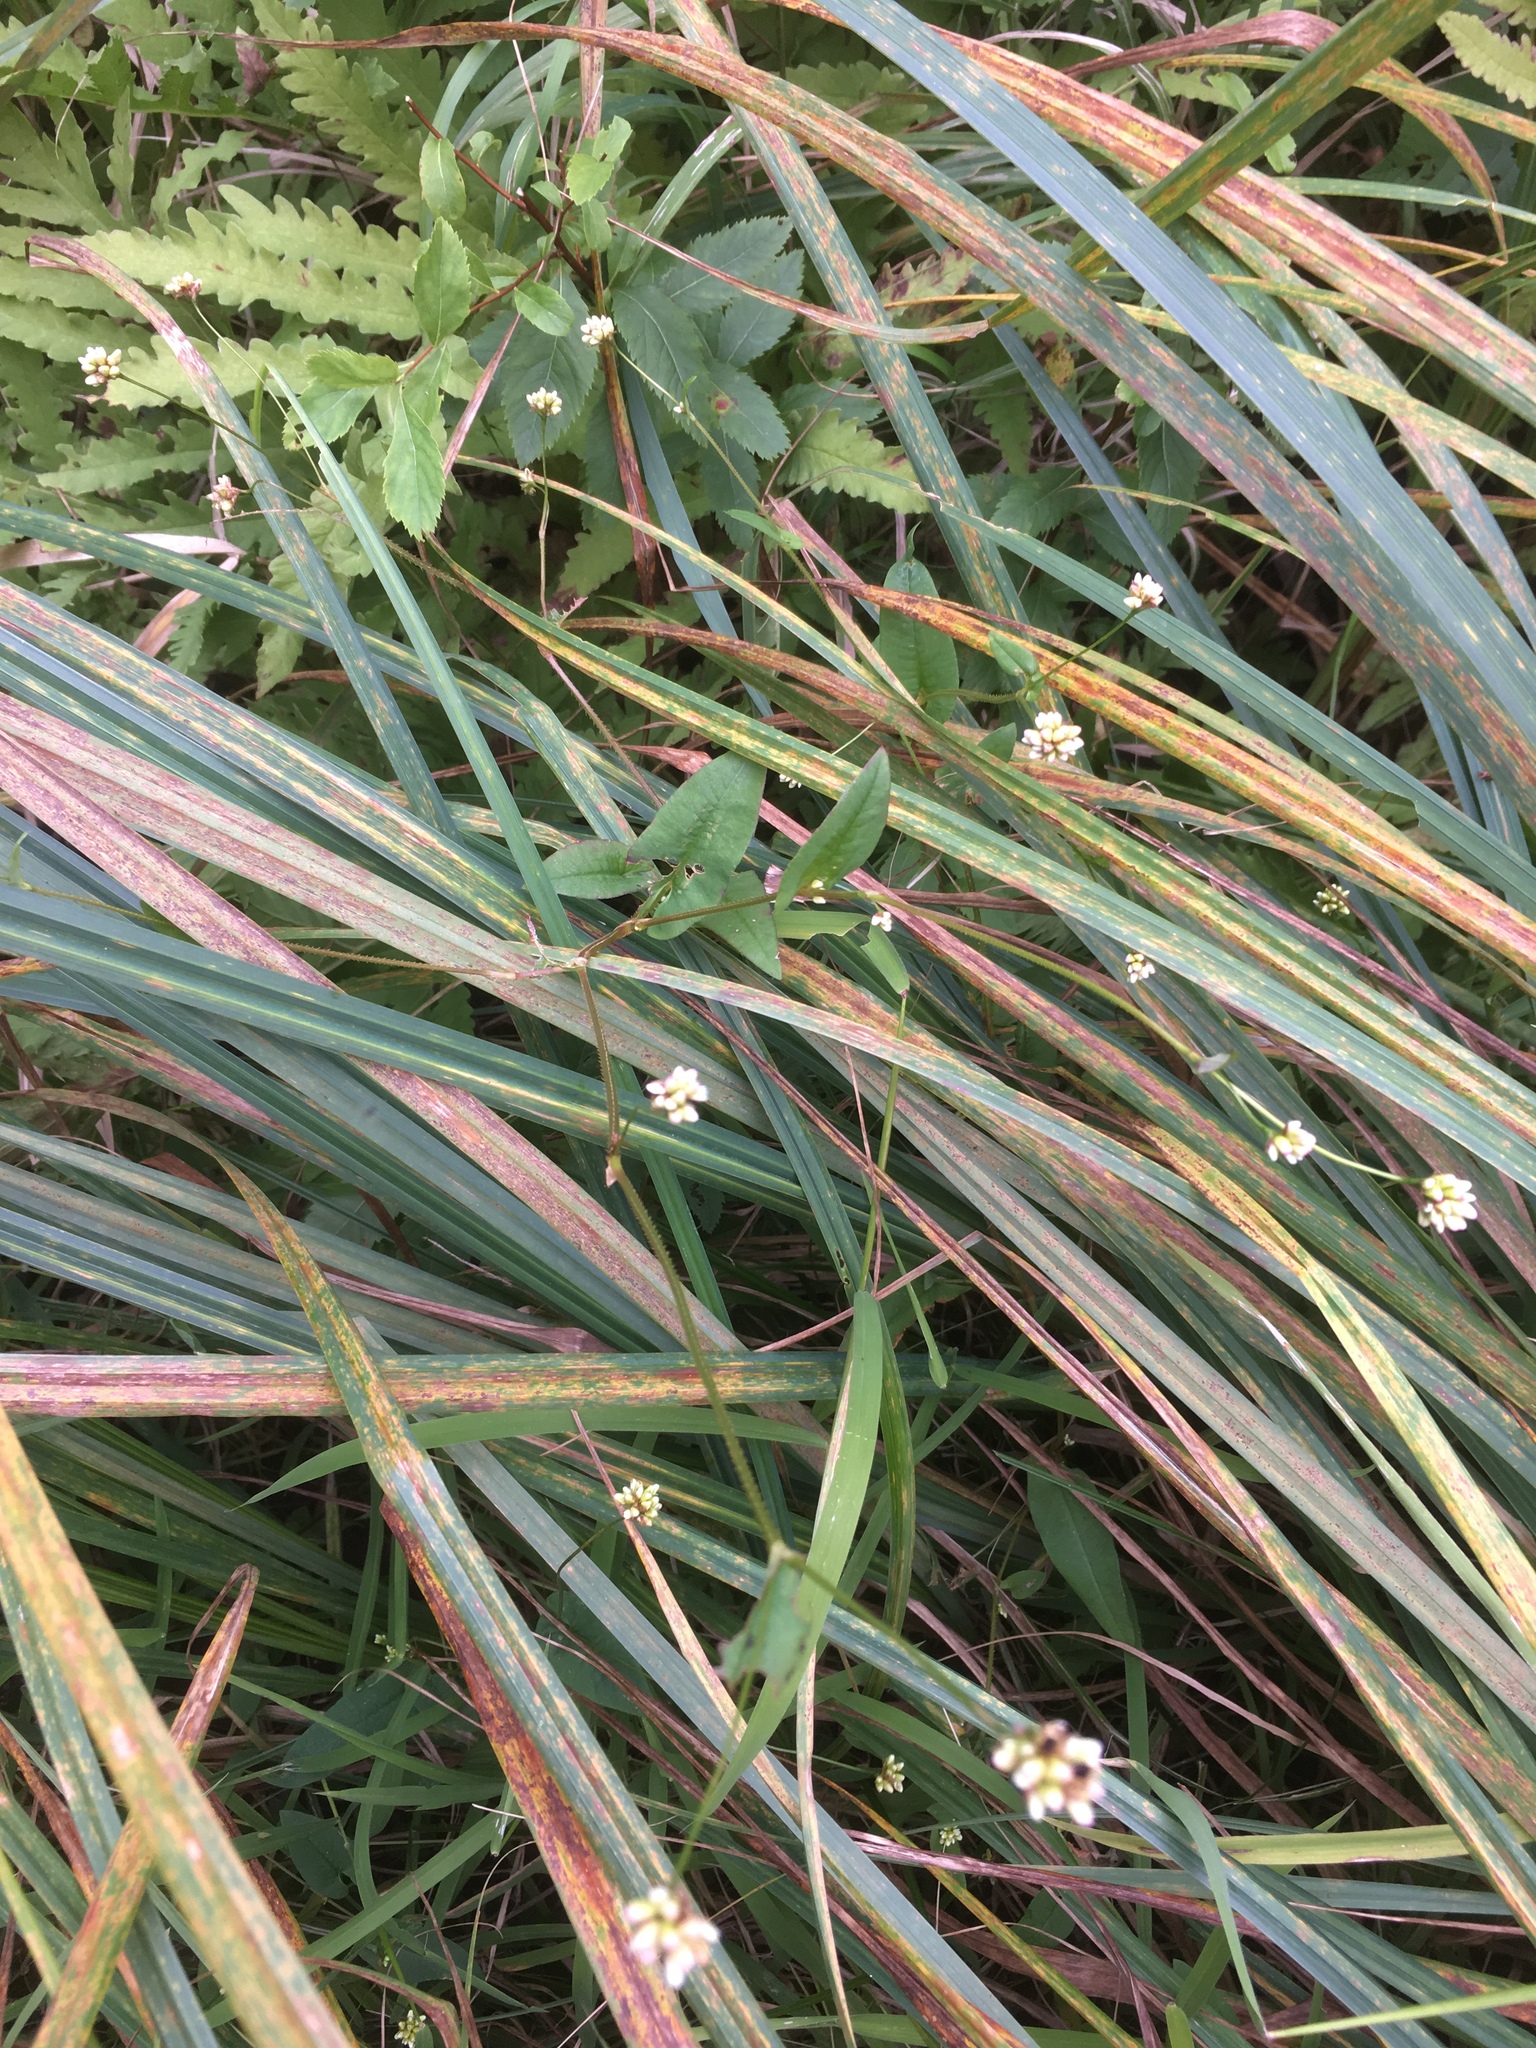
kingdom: Plantae
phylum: Tracheophyta
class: Magnoliopsida
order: Caryophyllales
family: Polygonaceae
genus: Persicaria
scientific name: Persicaria sagittata
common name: American tearthumb
